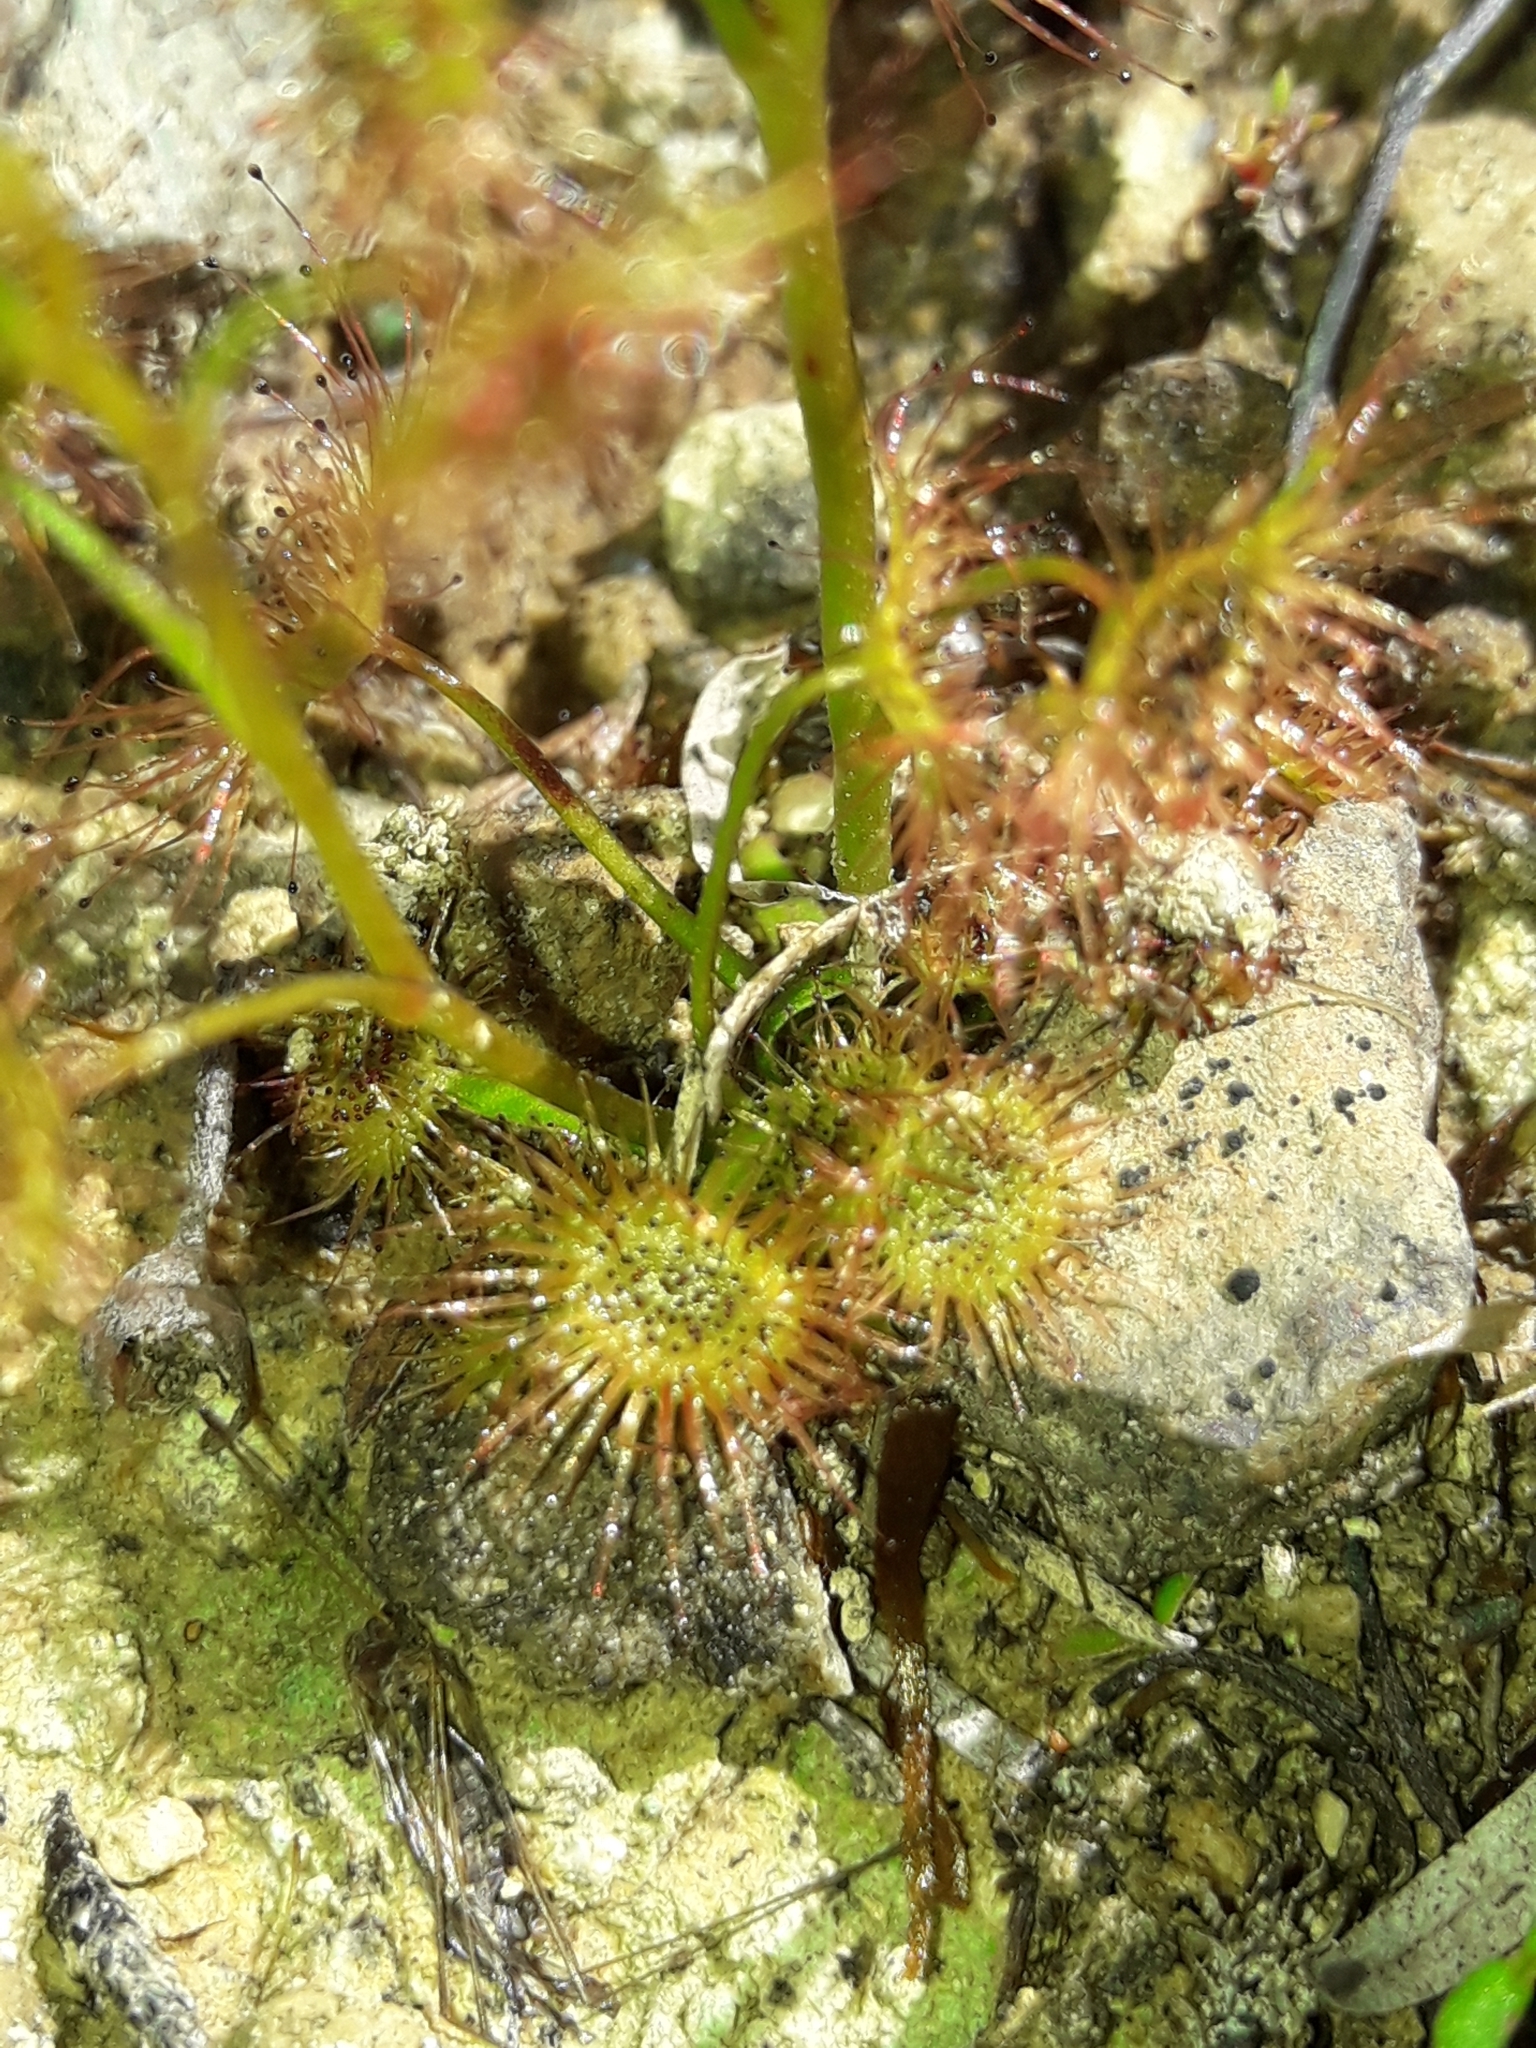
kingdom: Plantae
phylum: Tracheophyta
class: Magnoliopsida
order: Caryophyllales
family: Droseraceae
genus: Drosera
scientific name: Drosera peltata
